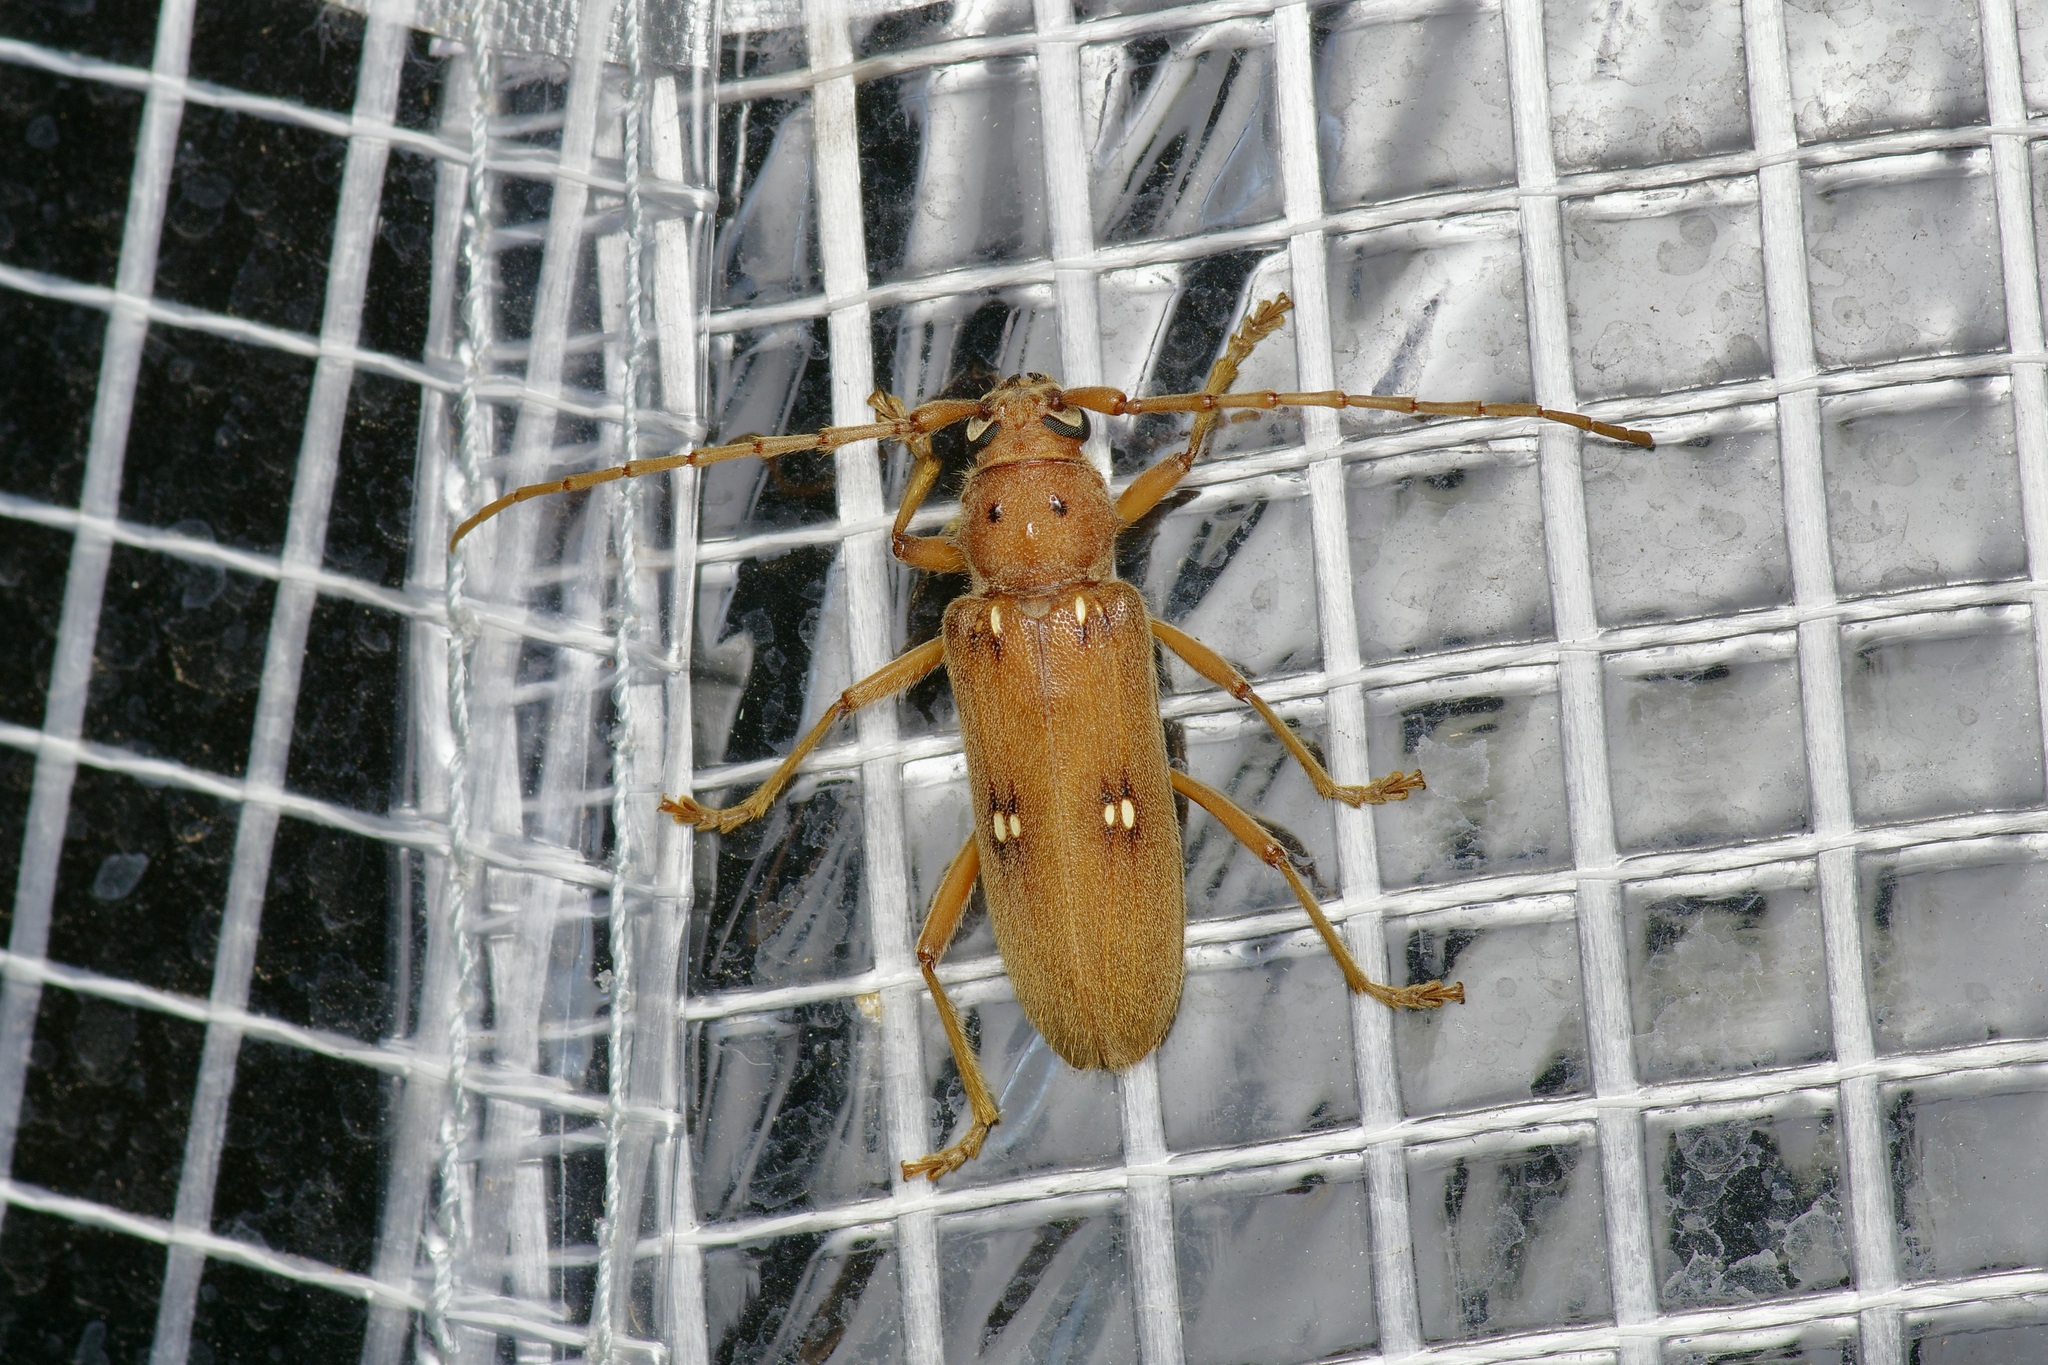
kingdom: Animalia
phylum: Arthropoda
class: Insecta
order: Coleoptera
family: Cerambycidae
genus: Eburia
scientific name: Eburia haldemani
